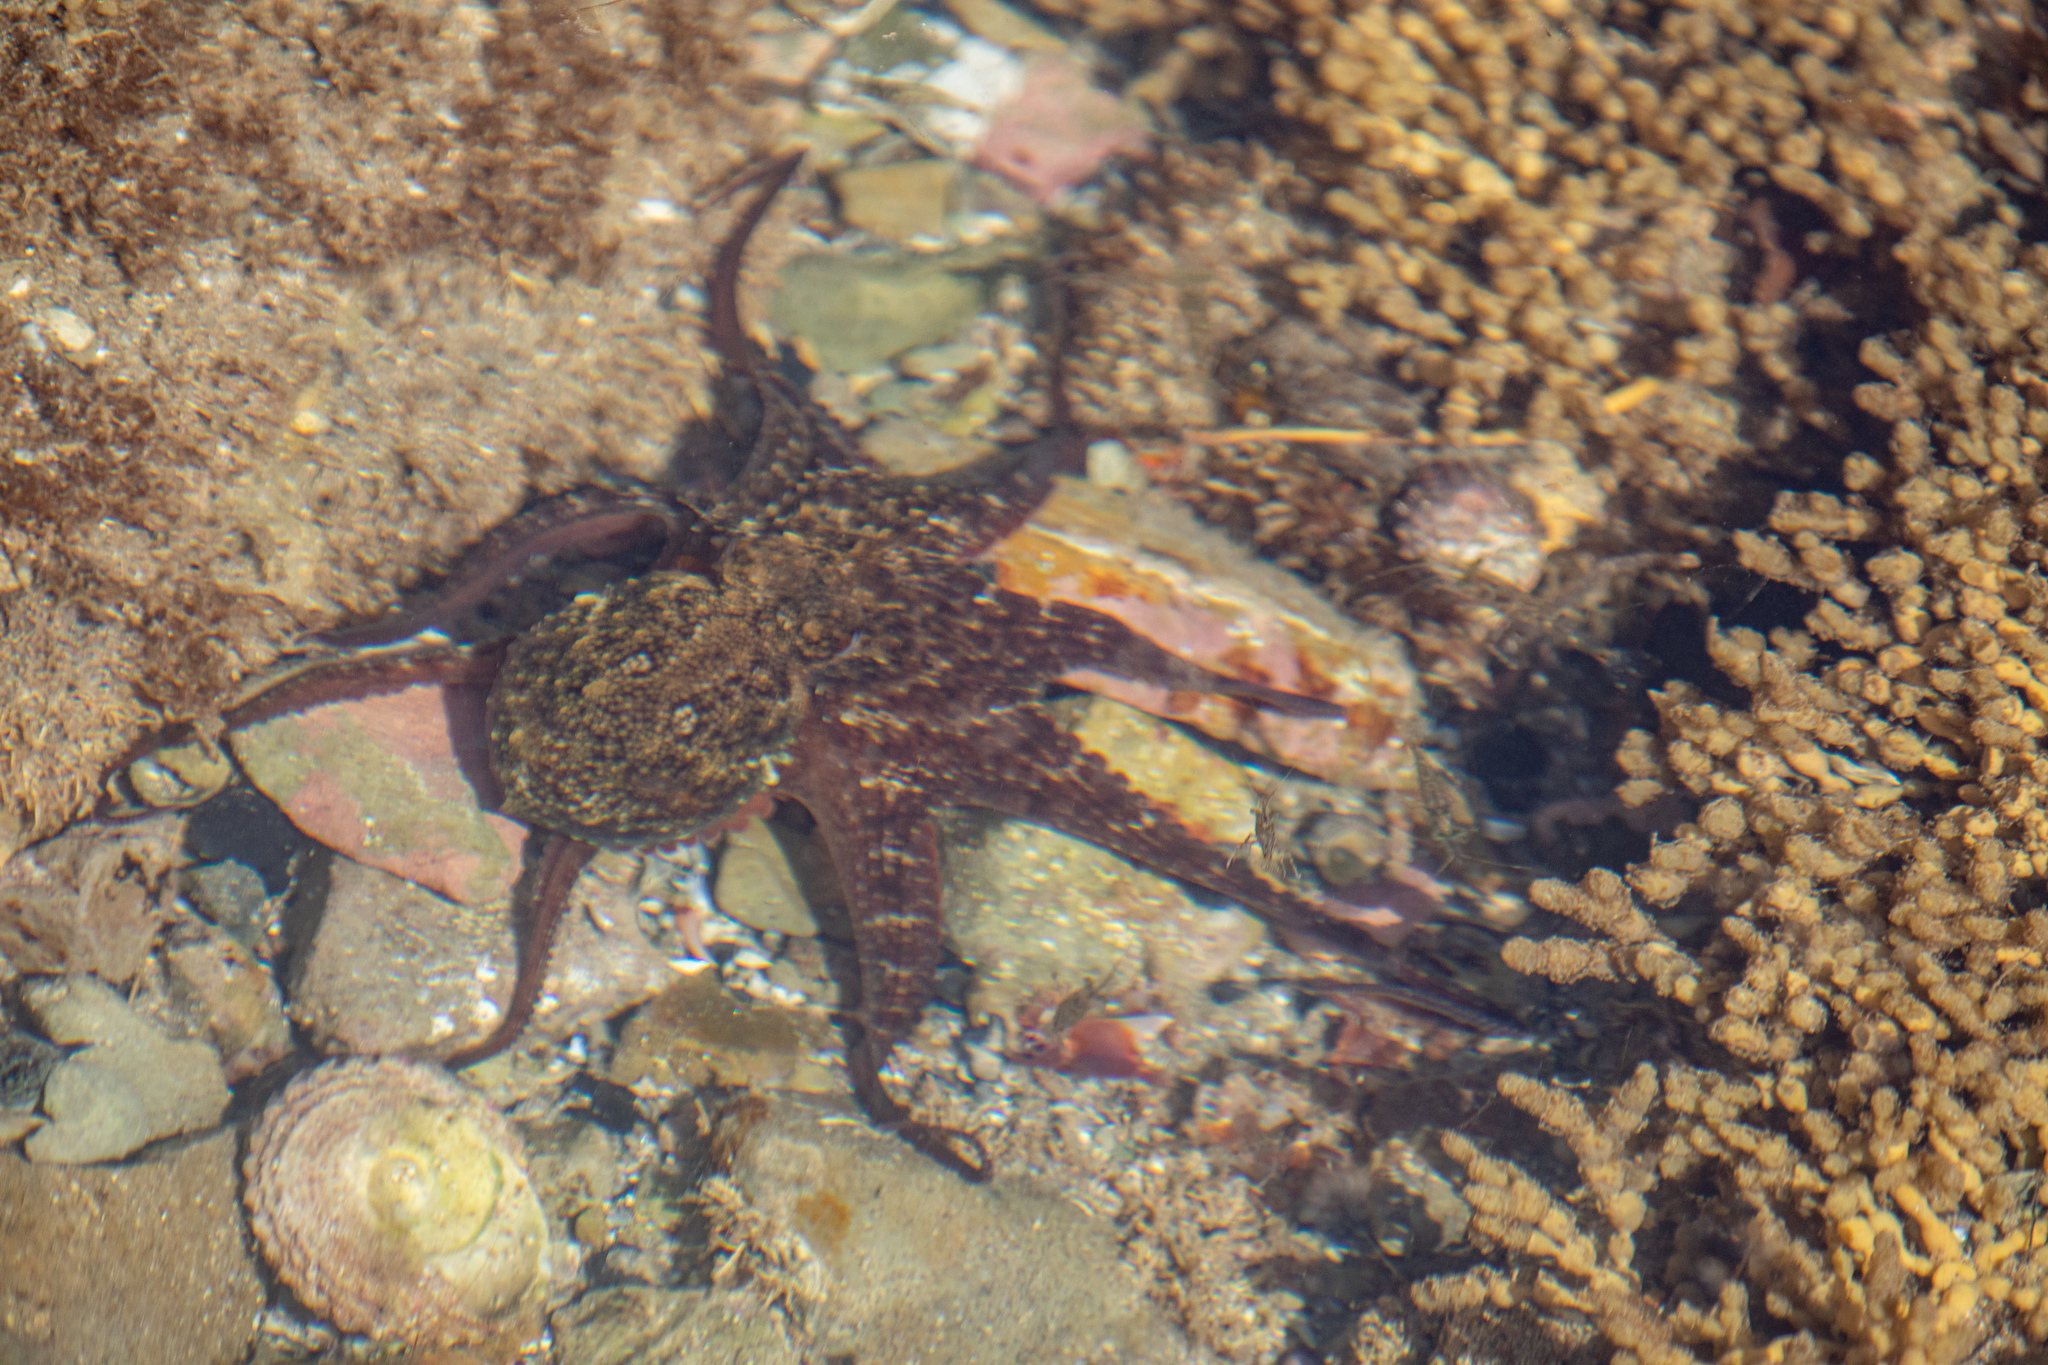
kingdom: Animalia
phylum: Mollusca
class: Cephalopoda
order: Octopoda
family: Octopodidae
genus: Octopus
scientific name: Octopus tetricus
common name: Sydney octopus
